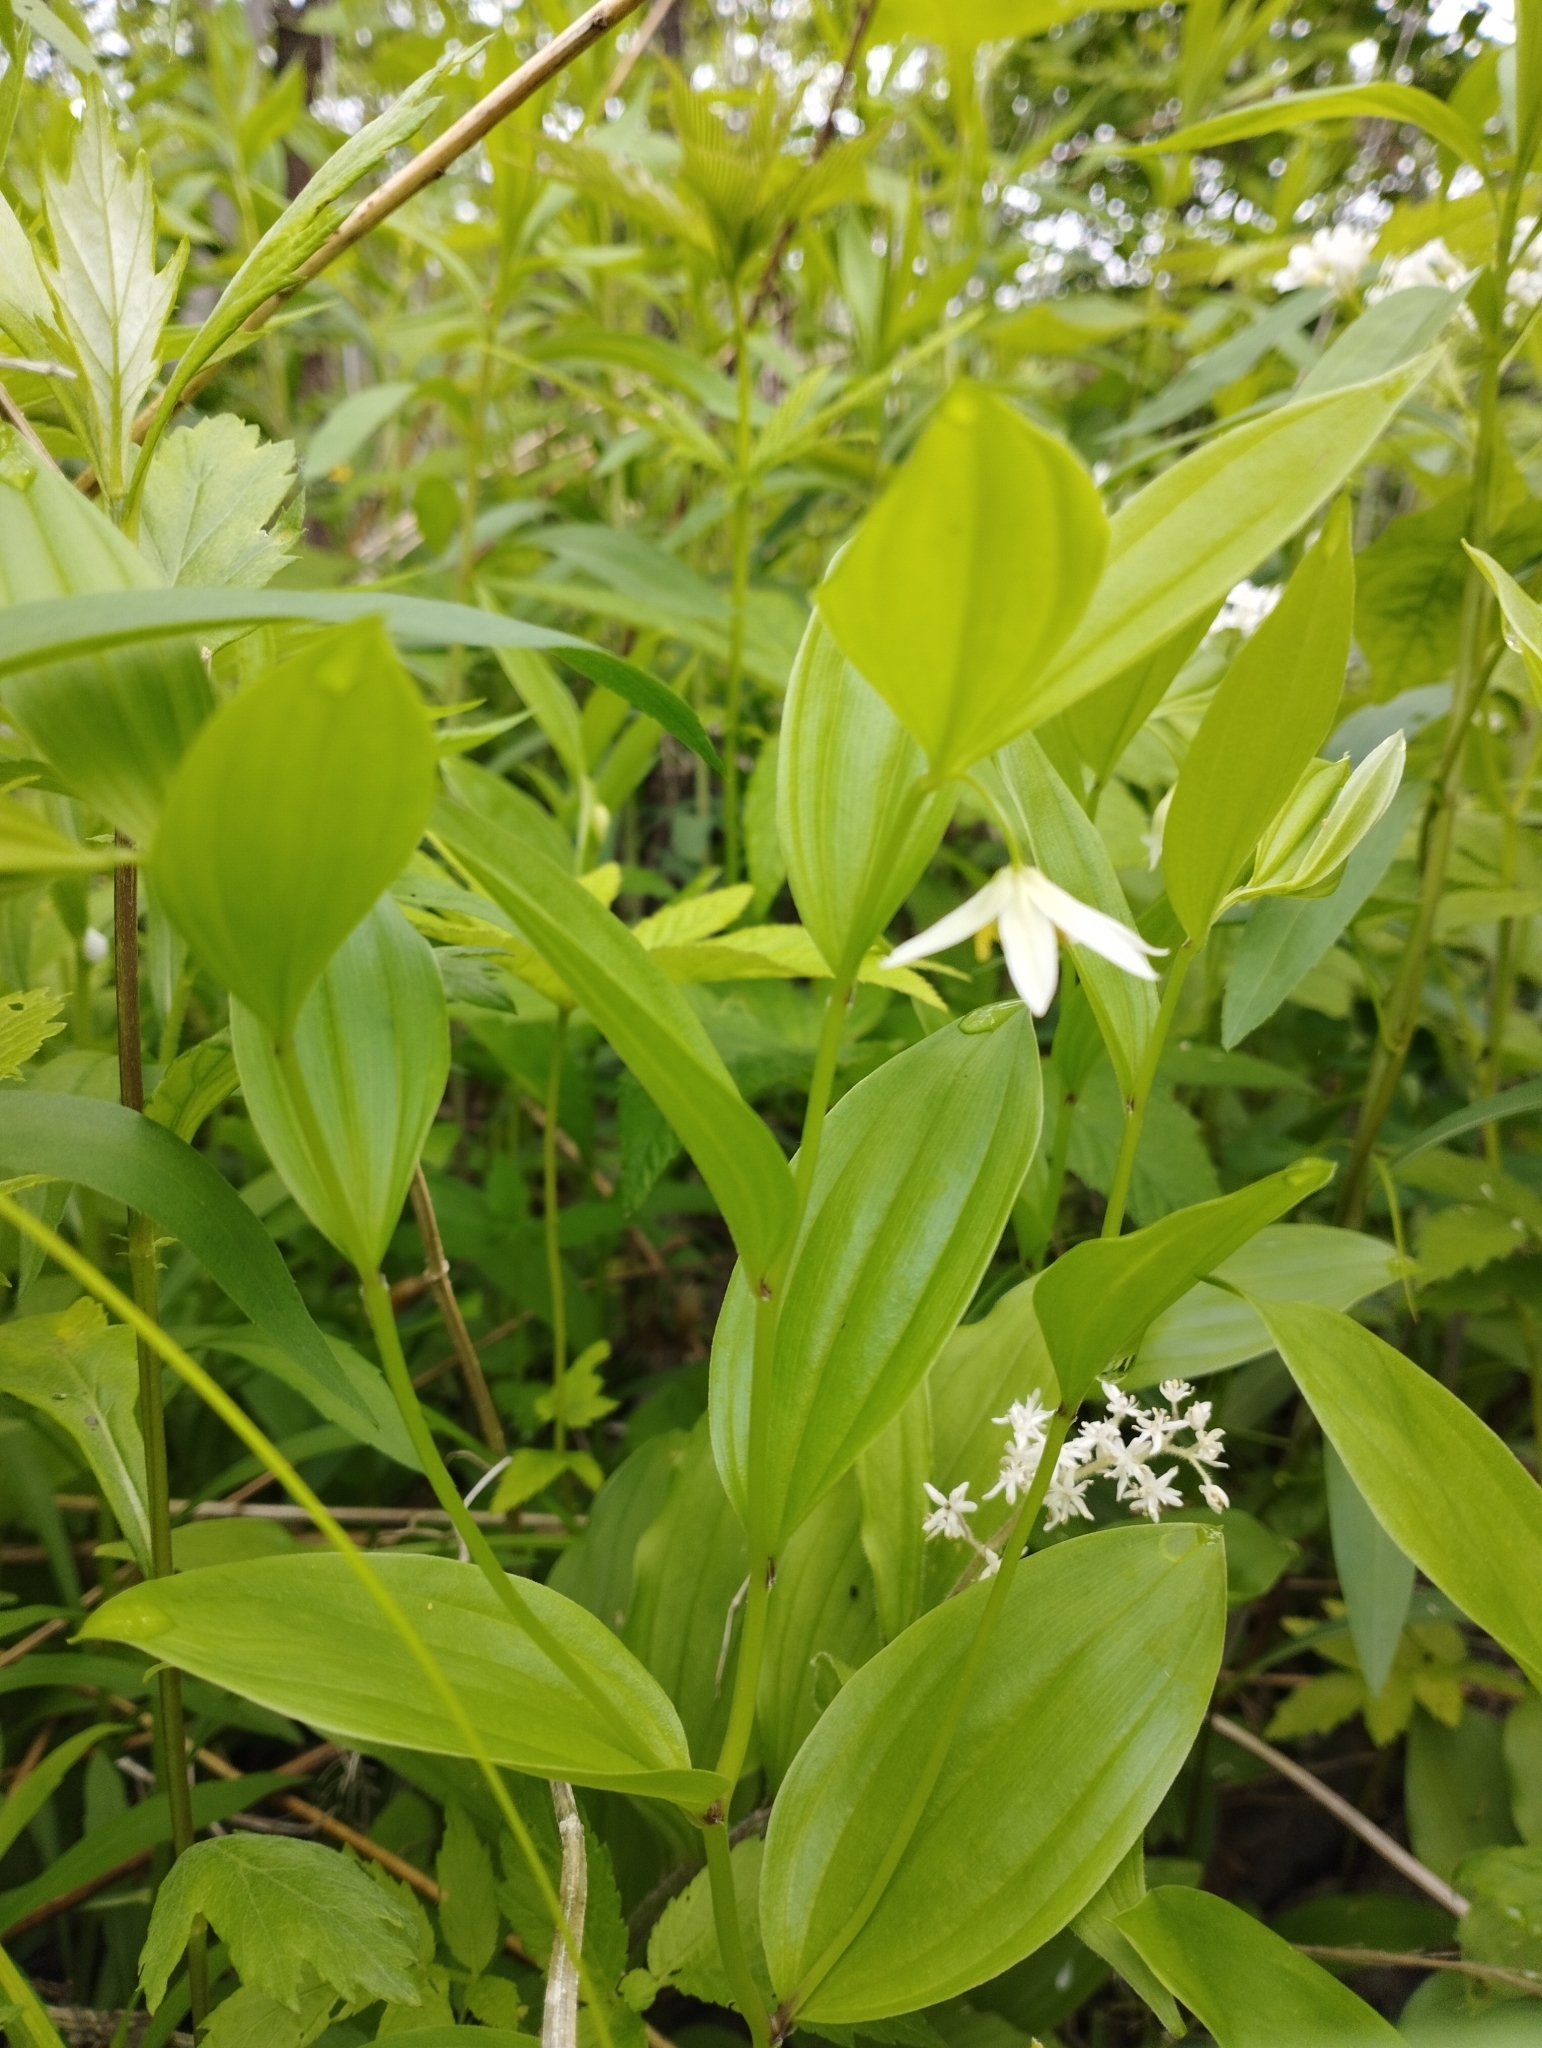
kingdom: Plantae
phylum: Tracheophyta
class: Liliopsida
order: Liliales
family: Colchicaceae
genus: Disporum
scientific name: Disporum viridescens
